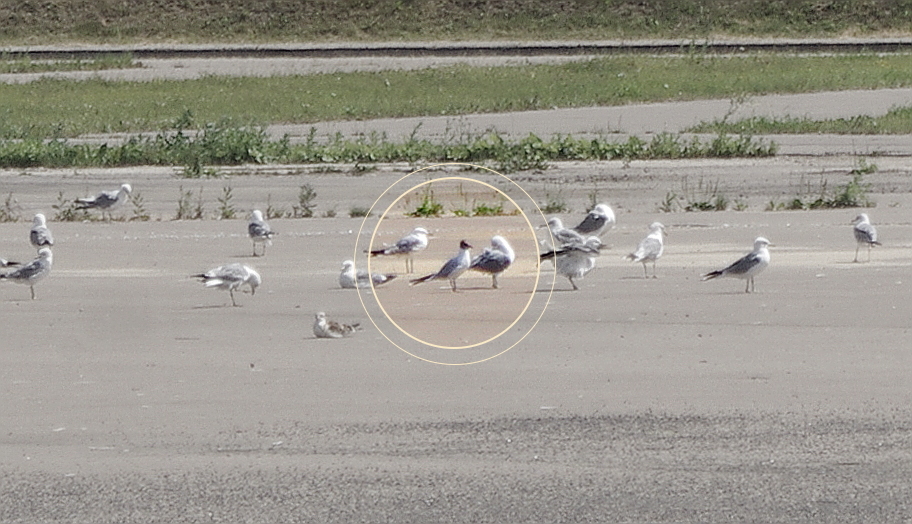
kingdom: Animalia
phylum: Chordata
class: Aves
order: Charadriiformes
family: Laridae
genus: Chroicocephalus
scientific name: Chroicocephalus ridibundus
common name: Black-headed gull
